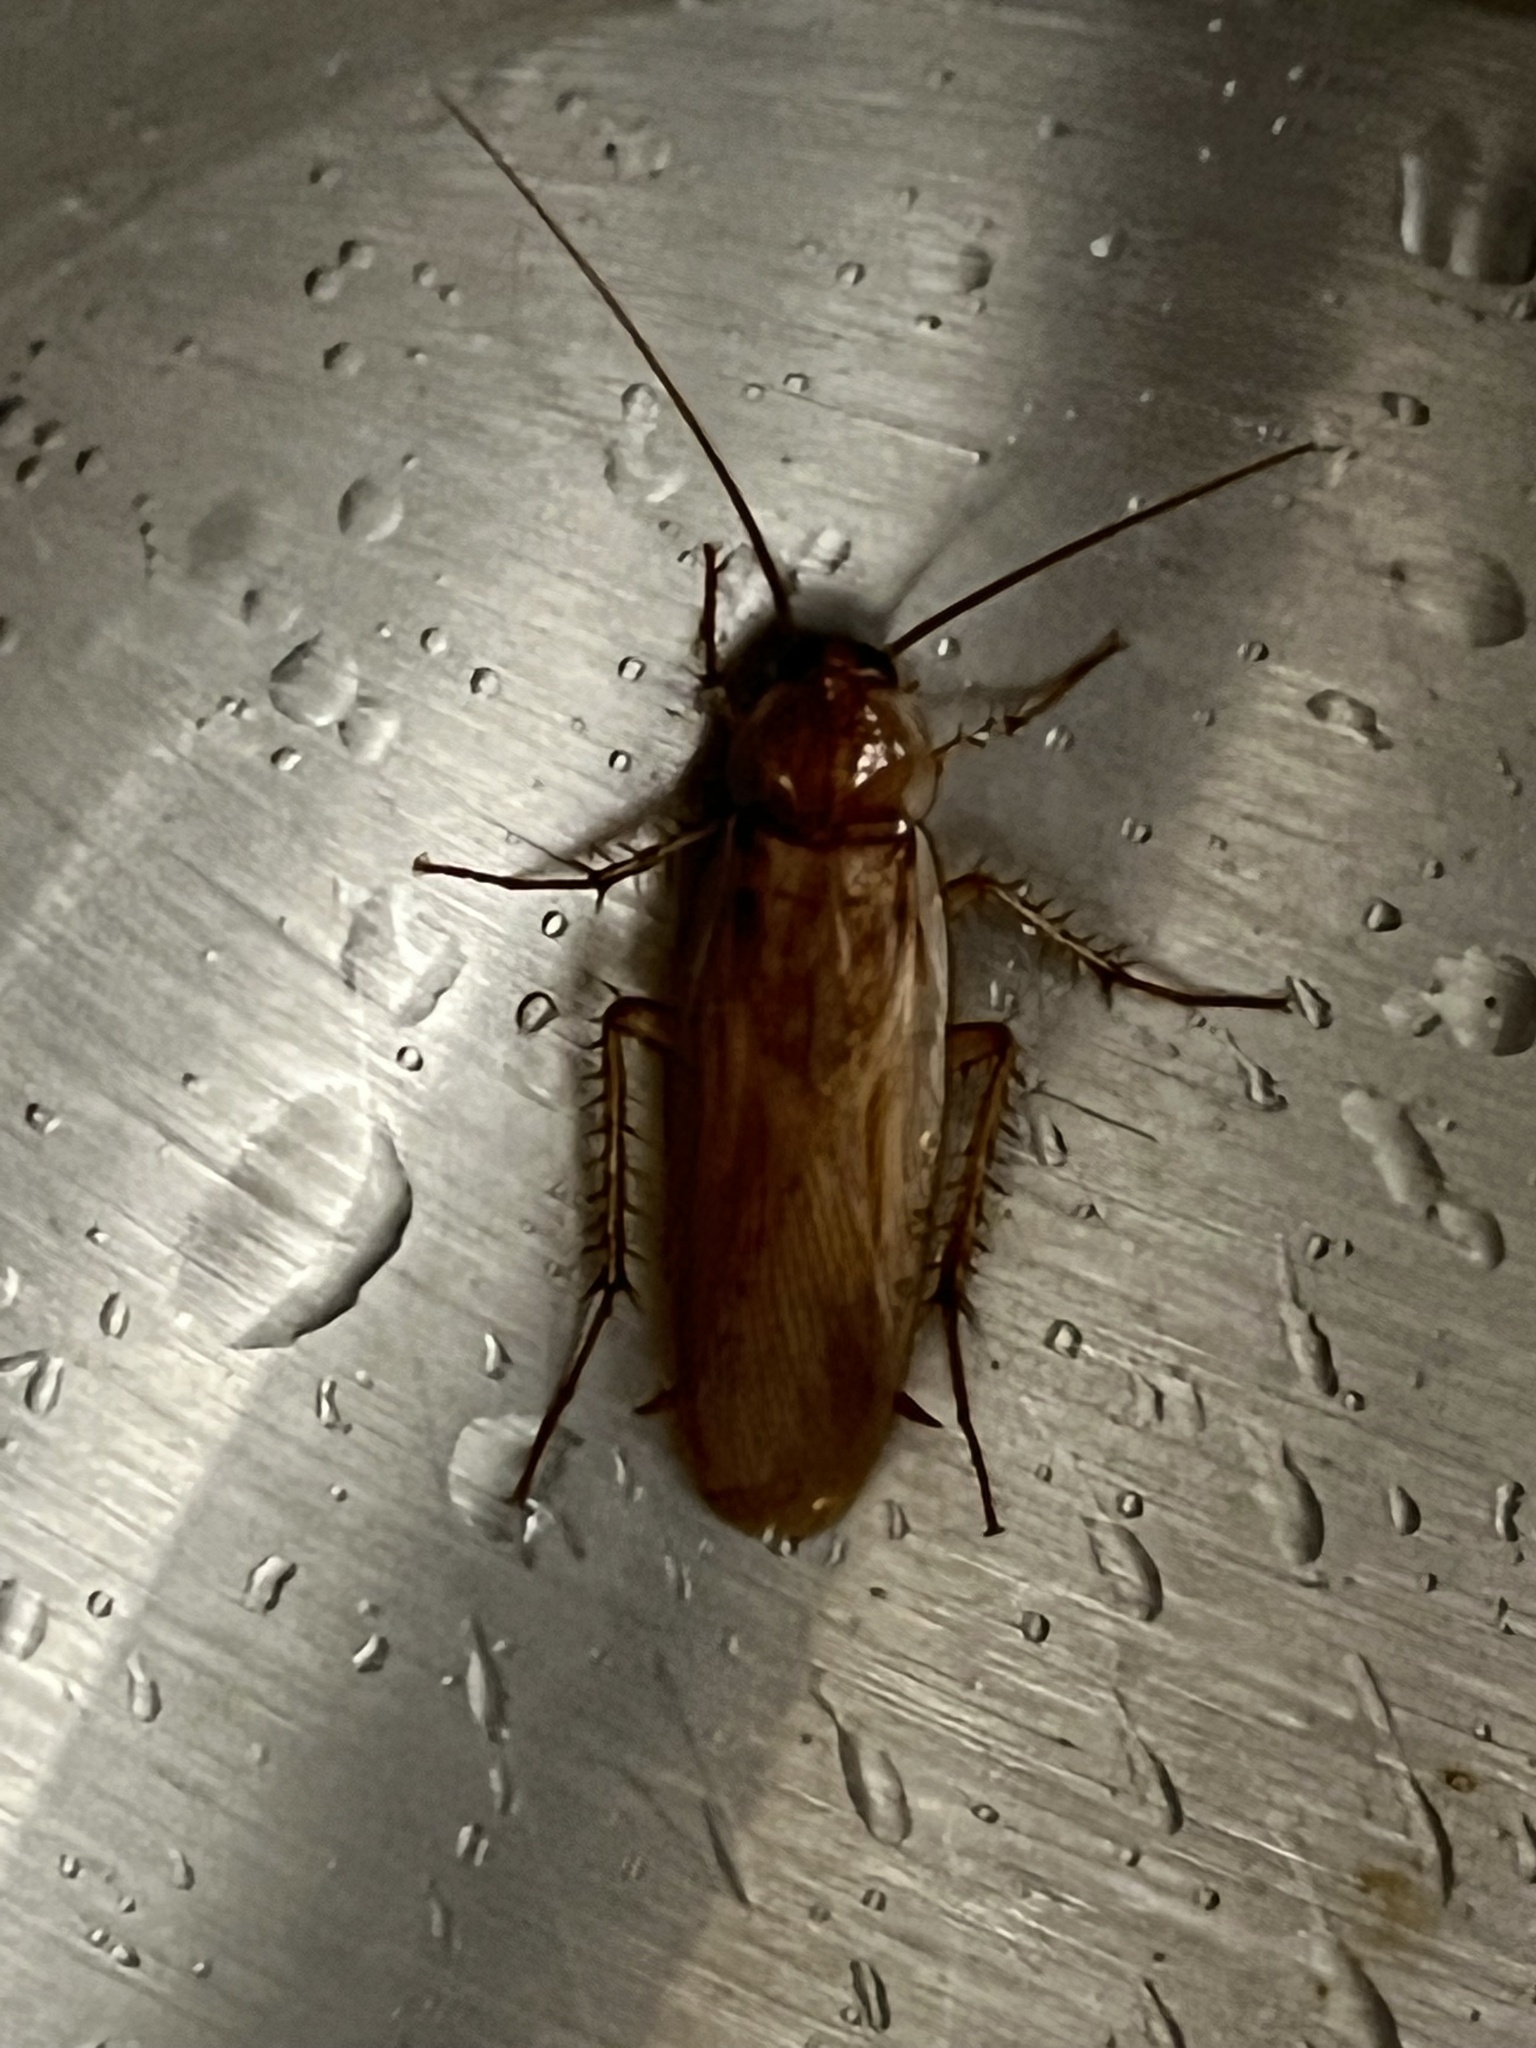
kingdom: Animalia
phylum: Arthropoda
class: Insecta
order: Blattodea
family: Blattidae
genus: Periplaneta
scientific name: Periplaneta lateralis
